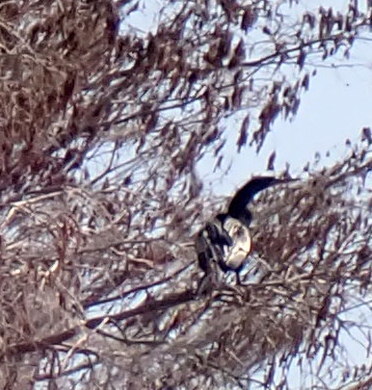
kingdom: Animalia
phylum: Chordata
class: Aves
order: Suliformes
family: Anhingidae
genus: Anhinga
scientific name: Anhinga anhinga
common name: Anhinga
